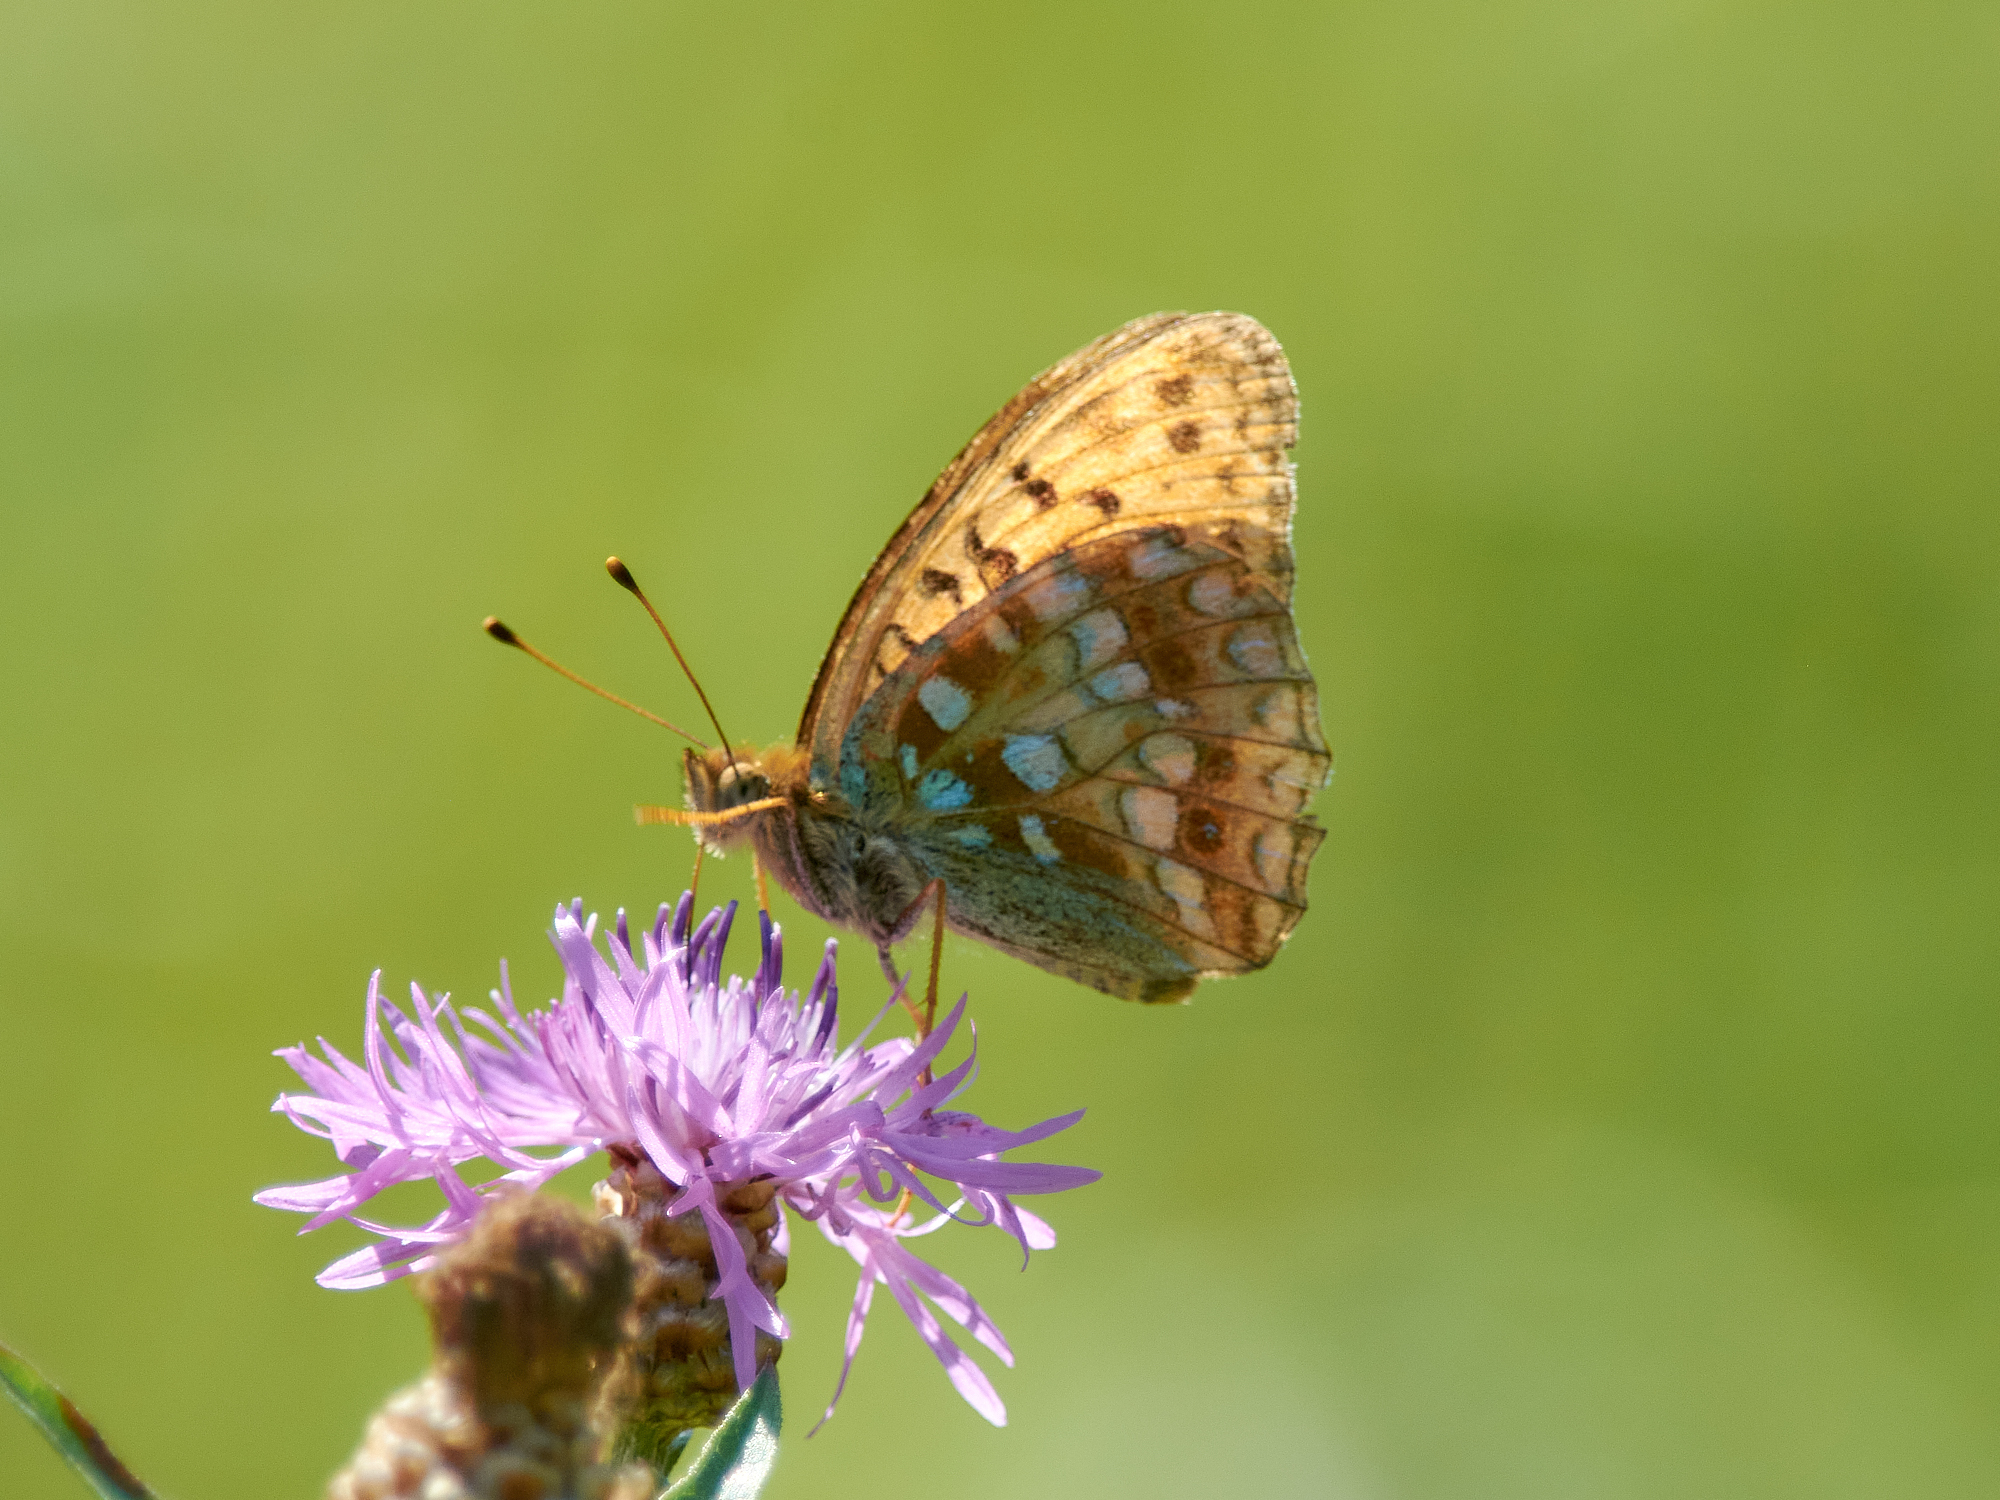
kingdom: Animalia
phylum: Arthropoda
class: Insecta
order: Lepidoptera
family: Nymphalidae
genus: Fabriciana
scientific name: Fabriciana adippe
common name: High brown fritillary
